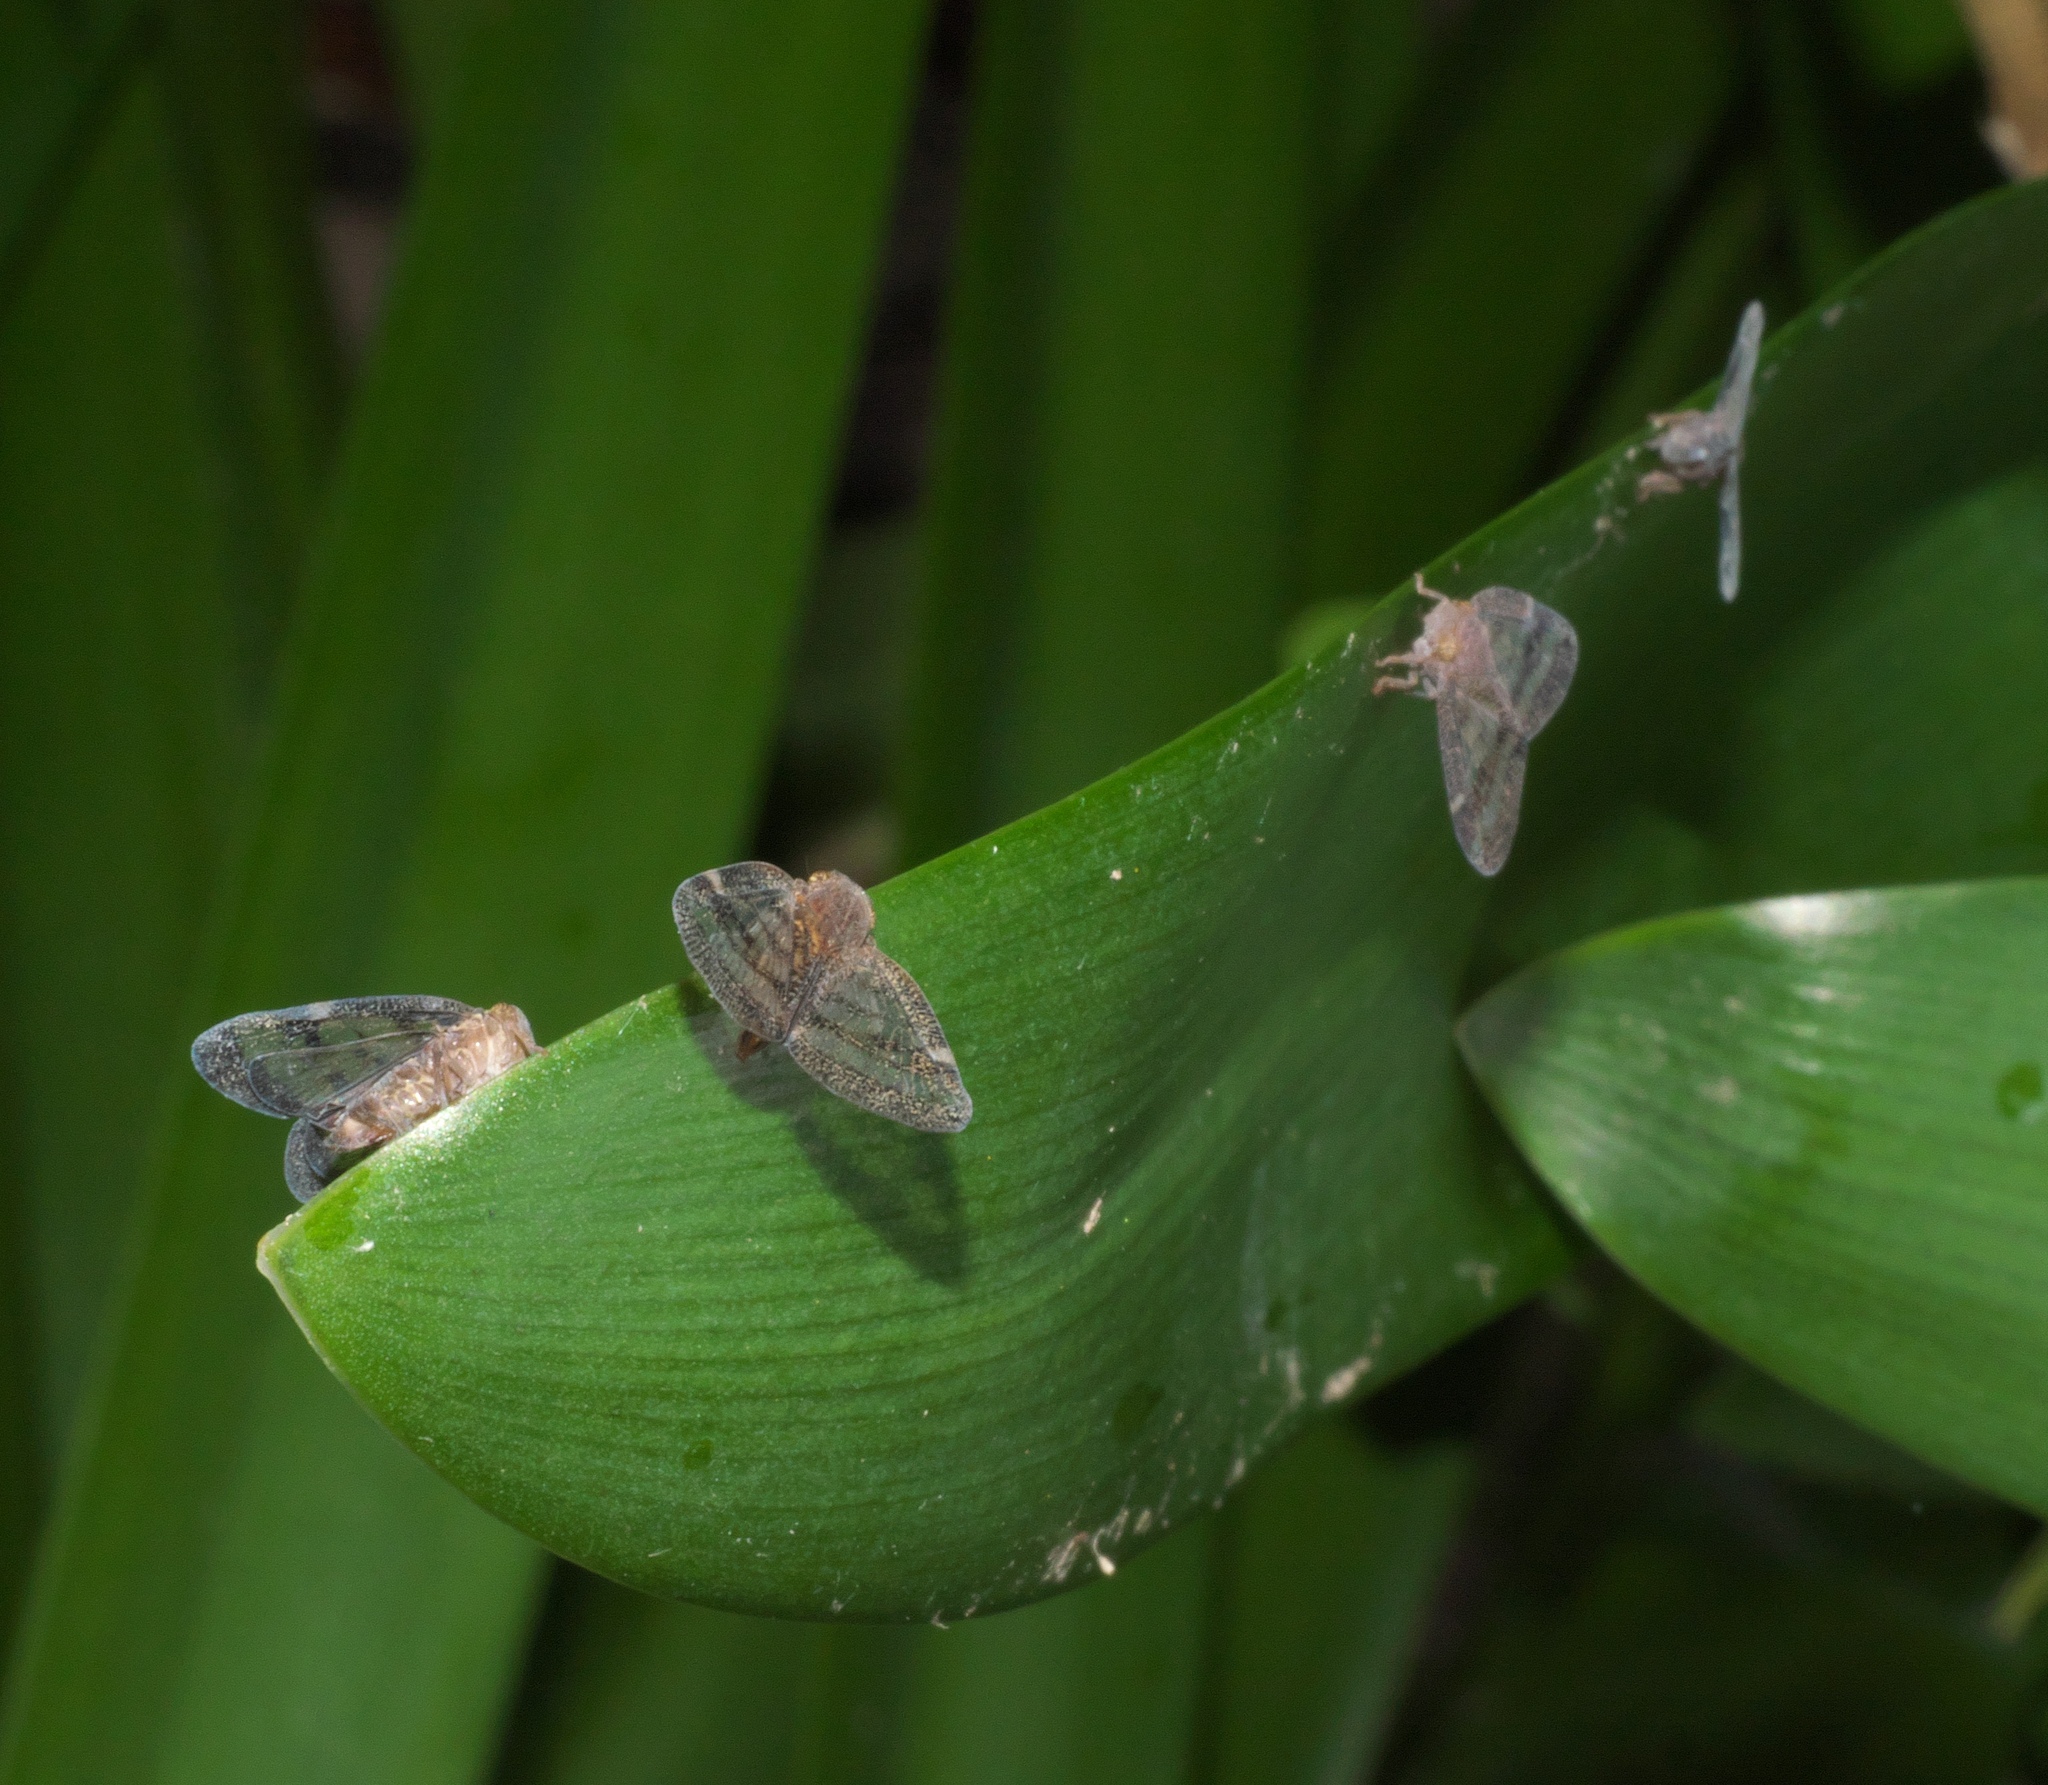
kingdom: Animalia
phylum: Arthropoda
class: Insecta
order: Hemiptera
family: Ricaniidae
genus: Scolypopa
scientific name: Scolypopa australis
